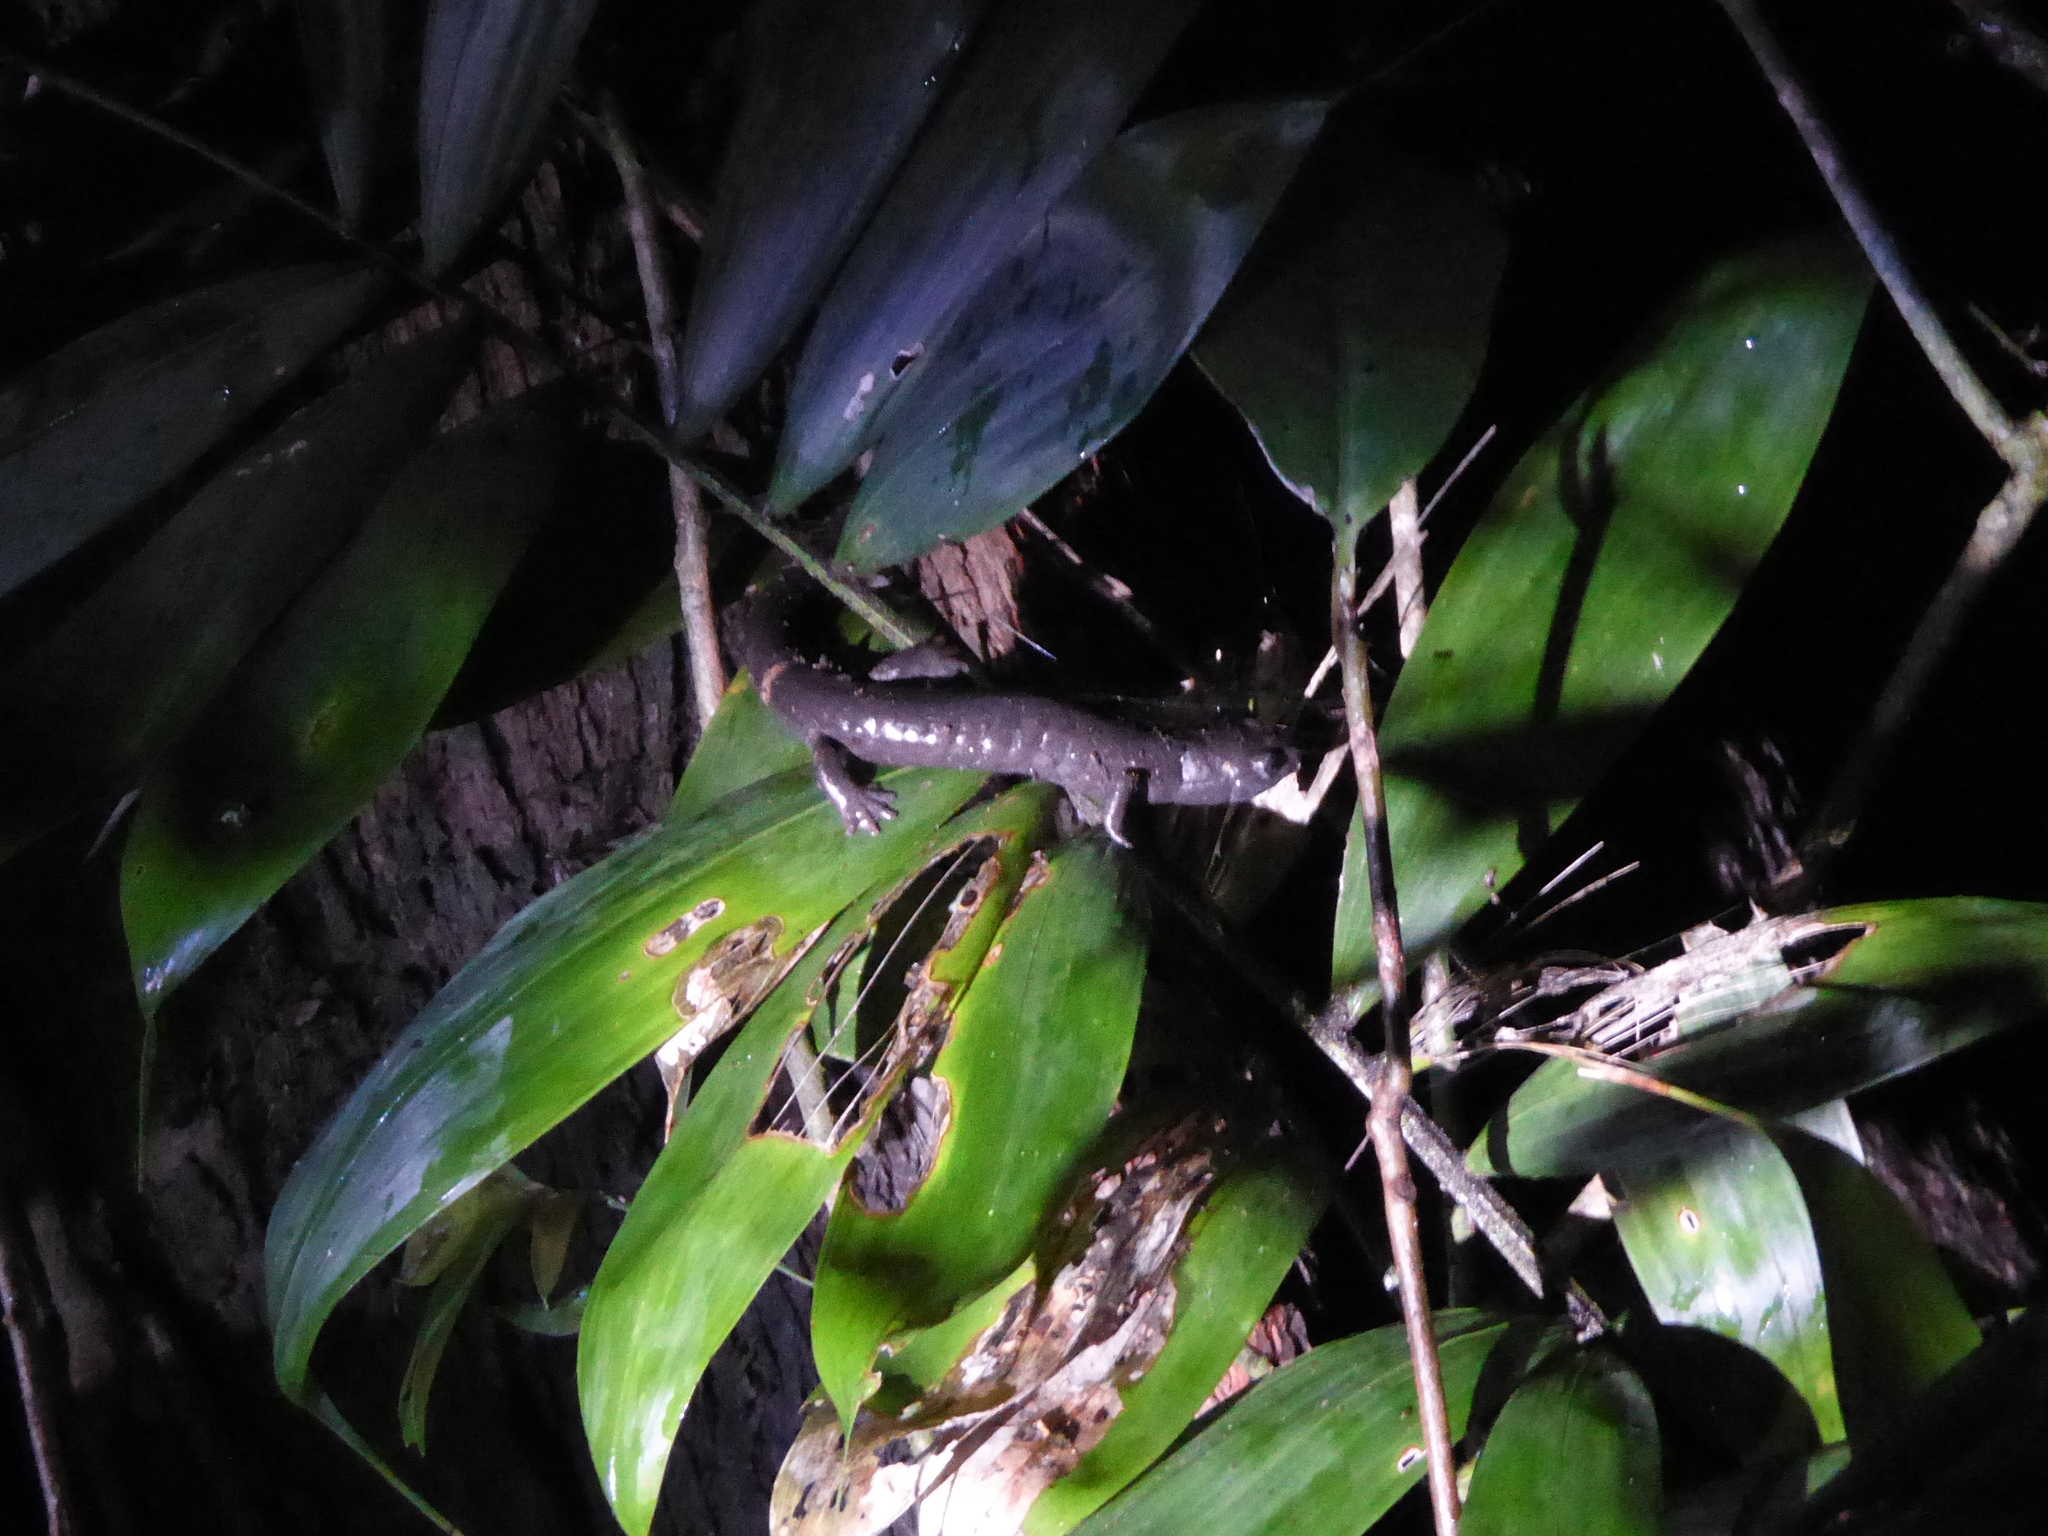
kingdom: Animalia
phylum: Chordata
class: Amphibia
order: Caudata
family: Plethodontidae
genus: Bolitoglossa
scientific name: Bolitoglossa robusta
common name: Ringtail salamander
